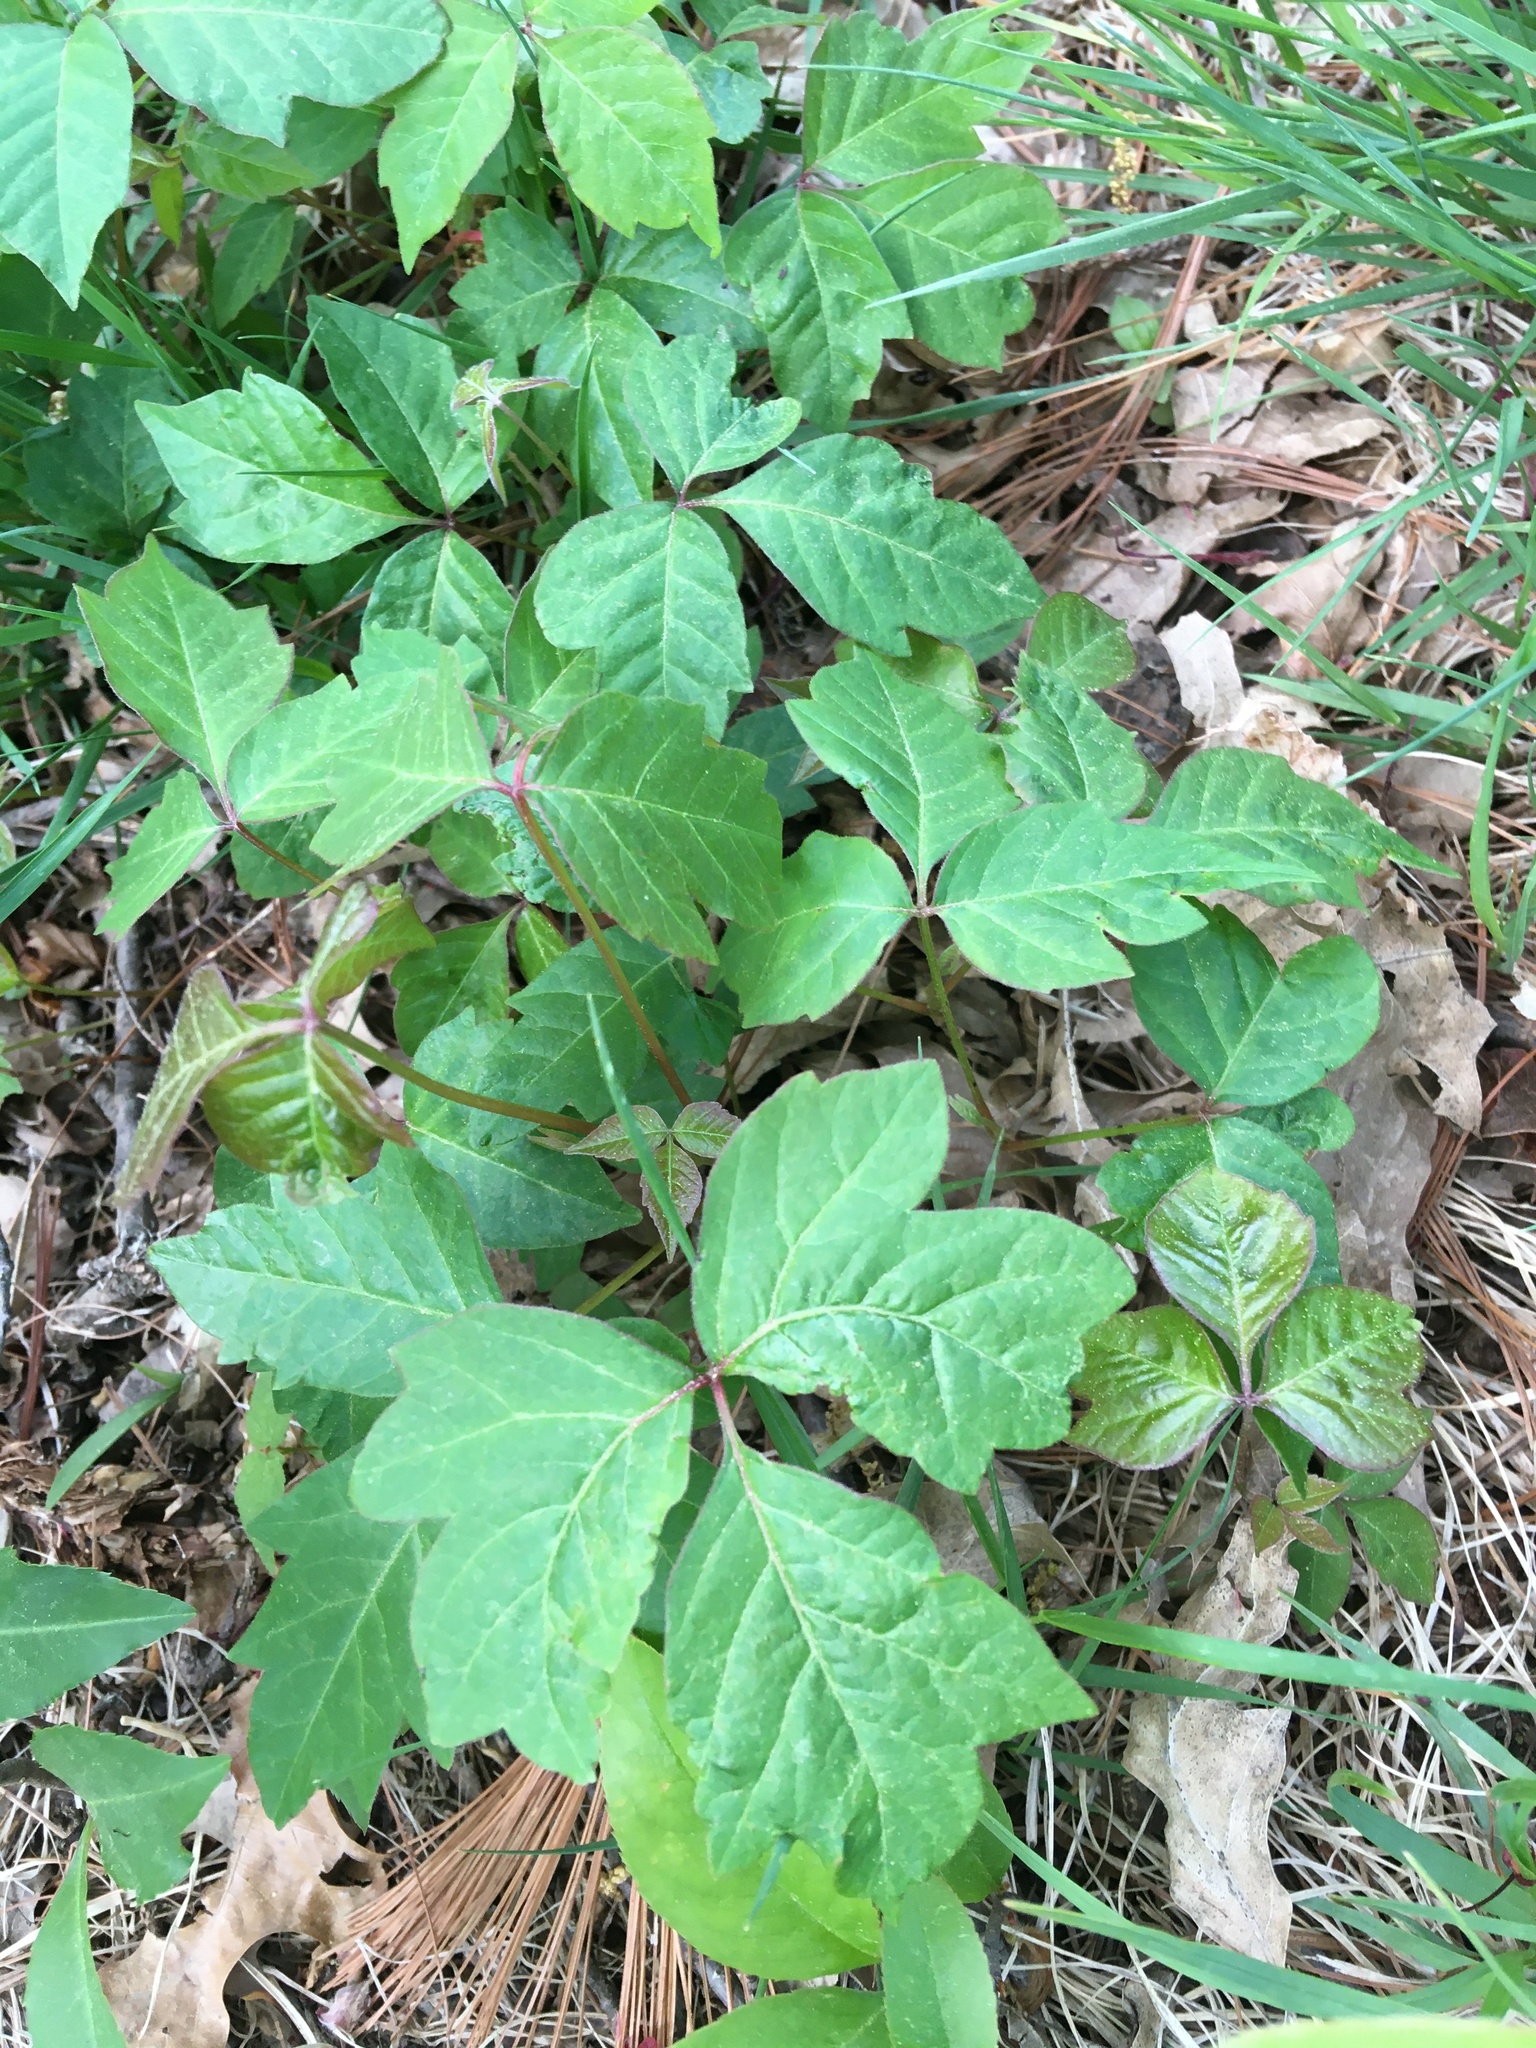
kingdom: Plantae
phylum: Tracheophyta
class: Magnoliopsida
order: Sapindales
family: Anacardiaceae
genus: Toxicodendron
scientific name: Toxicodendron radicans
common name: Poison ivy
